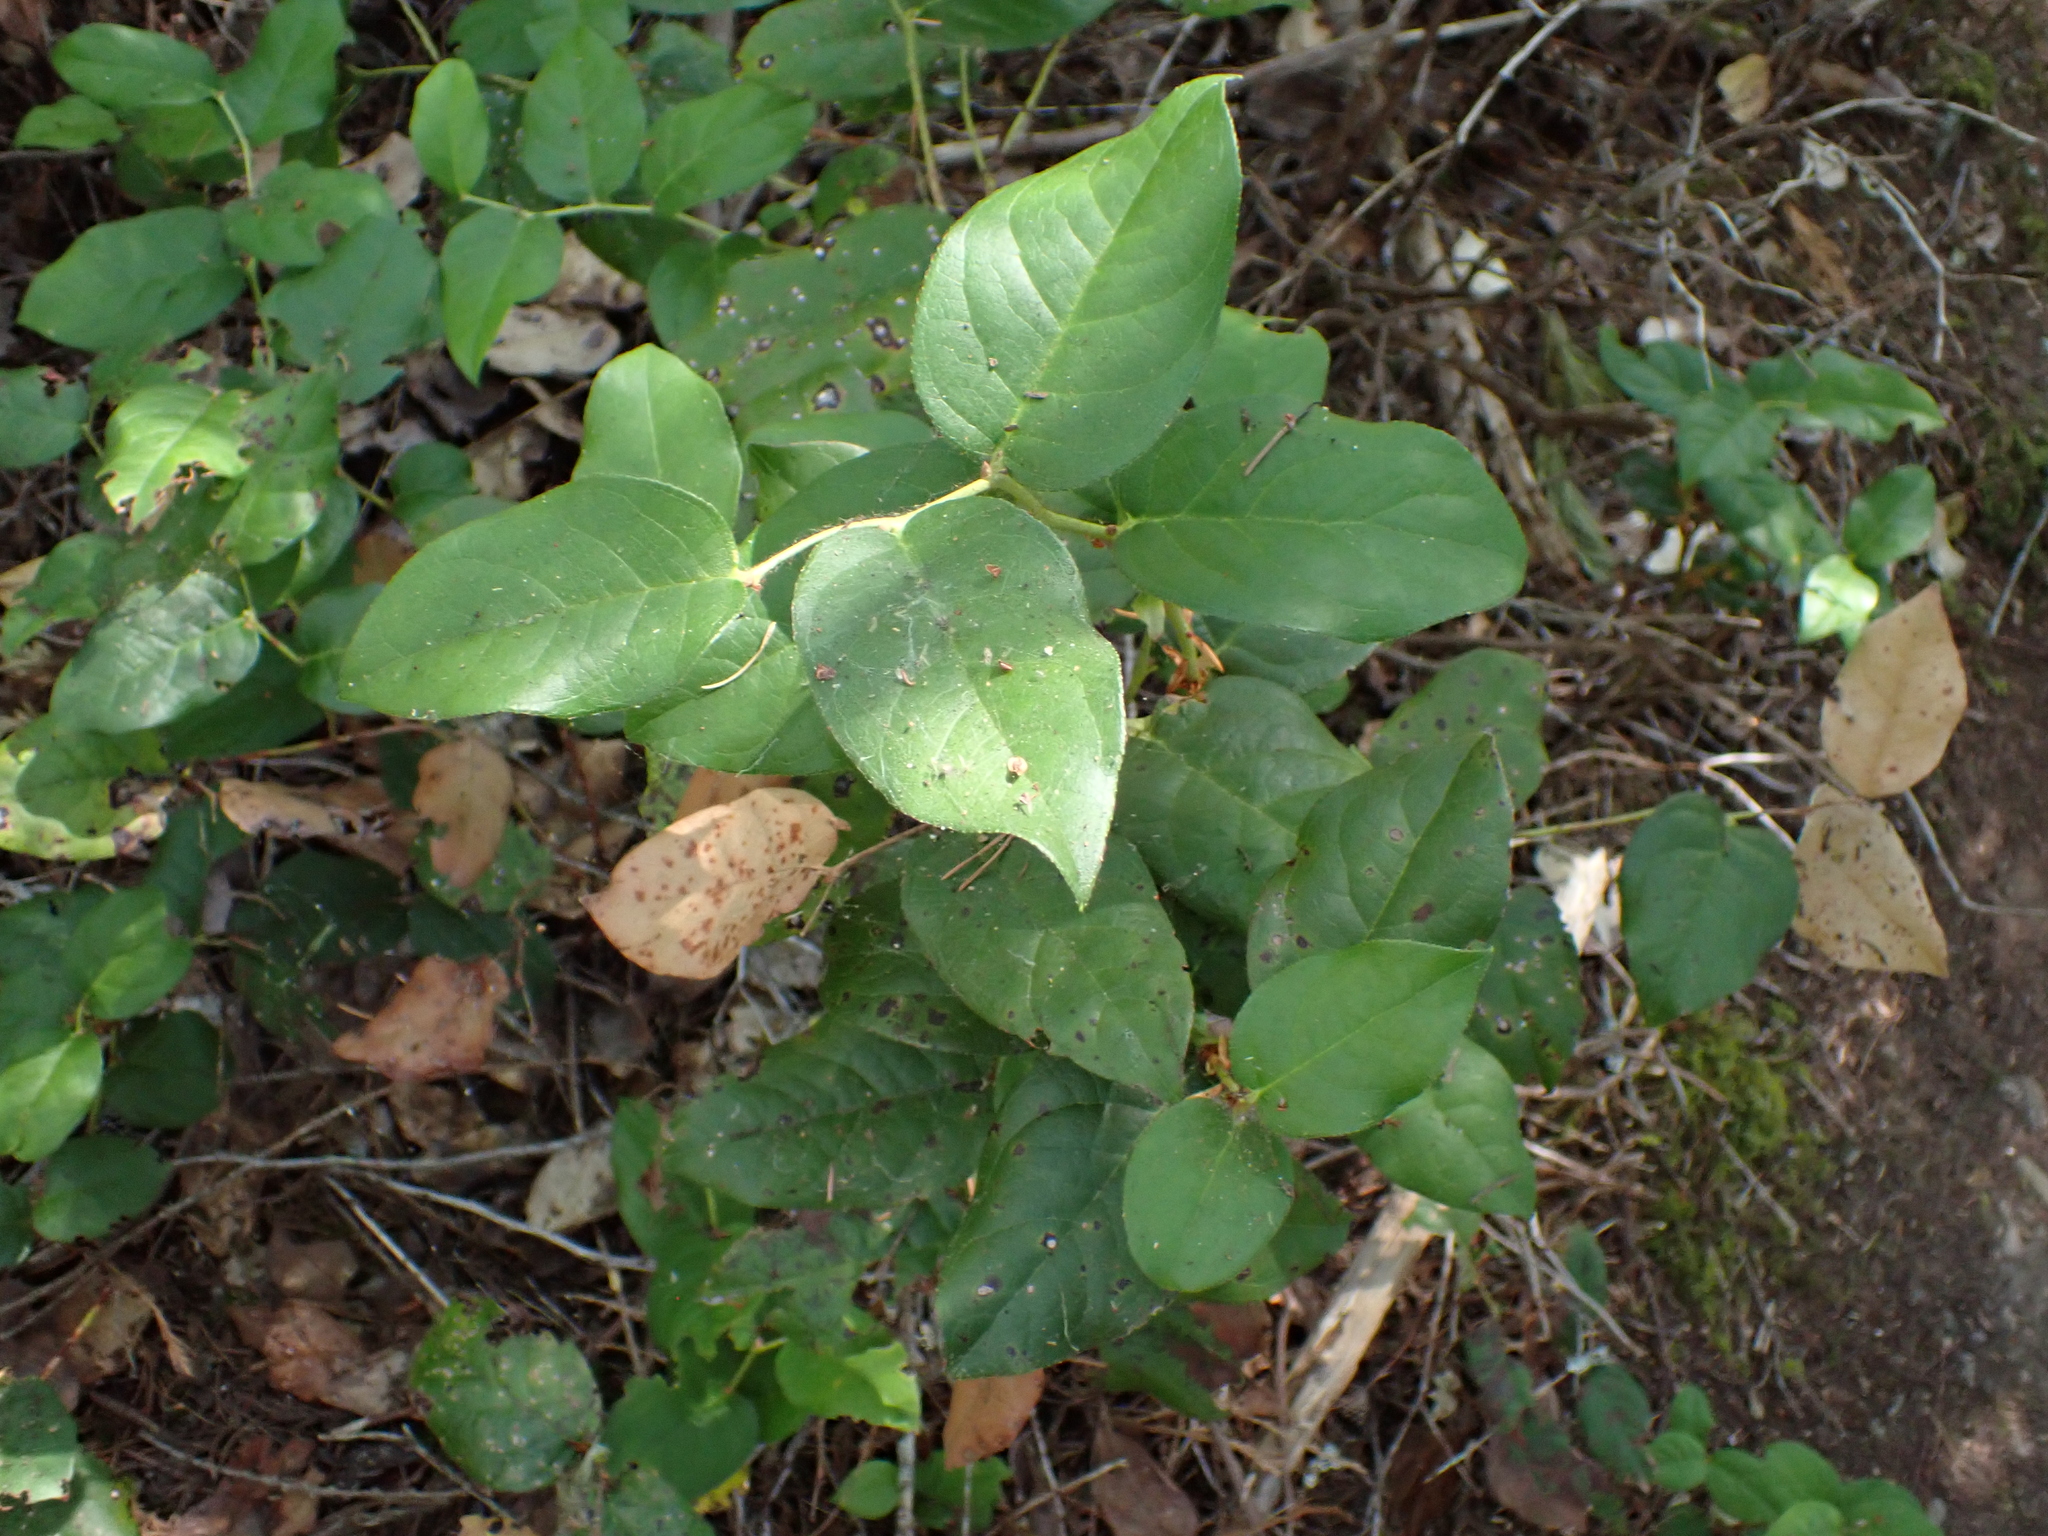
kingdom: Plantae
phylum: Tracheophyta
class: Magnoliopsida
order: Ericales
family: Ericaceae
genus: Gaultheria
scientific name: Gaultheria shallon
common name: Shallon
